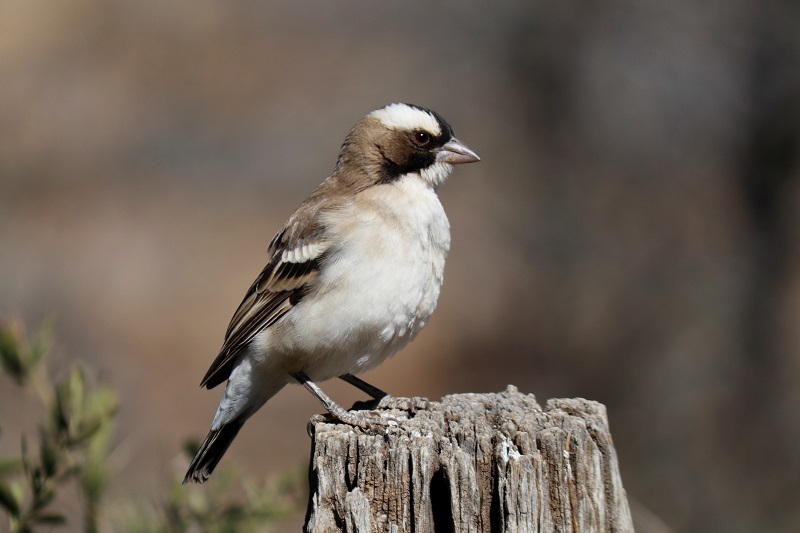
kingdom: Animalia
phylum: Chordata
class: Aves
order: Passeriformes
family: Passeridae
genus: Plocepasser
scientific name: Plocepasser mahali
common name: White-browed sparrow-weaver
